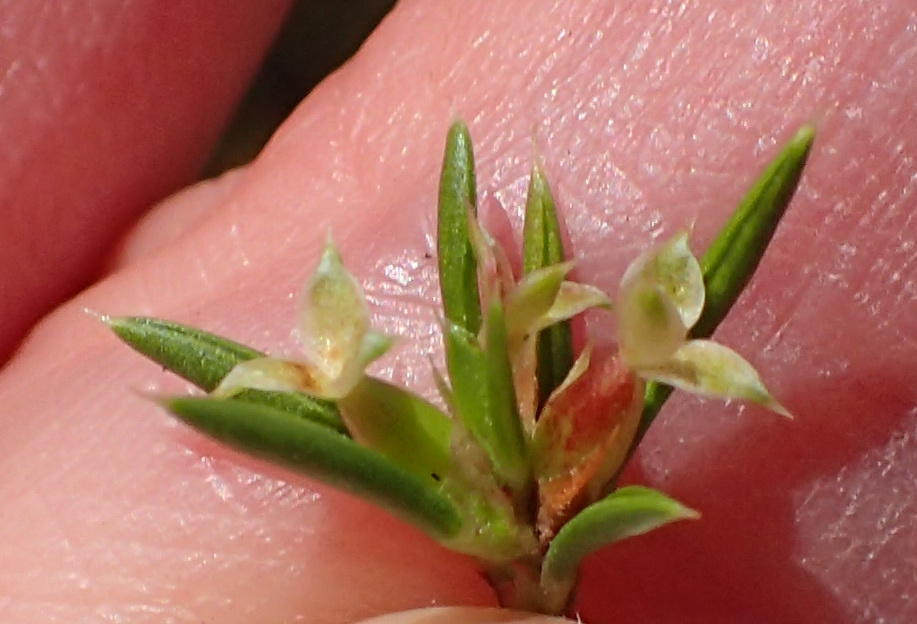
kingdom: Plantae
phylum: Tracheophyta
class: Magnoliopsida
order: Rosales
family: Rosaceae
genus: Cliffortia
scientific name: Cliffortia neglecta
